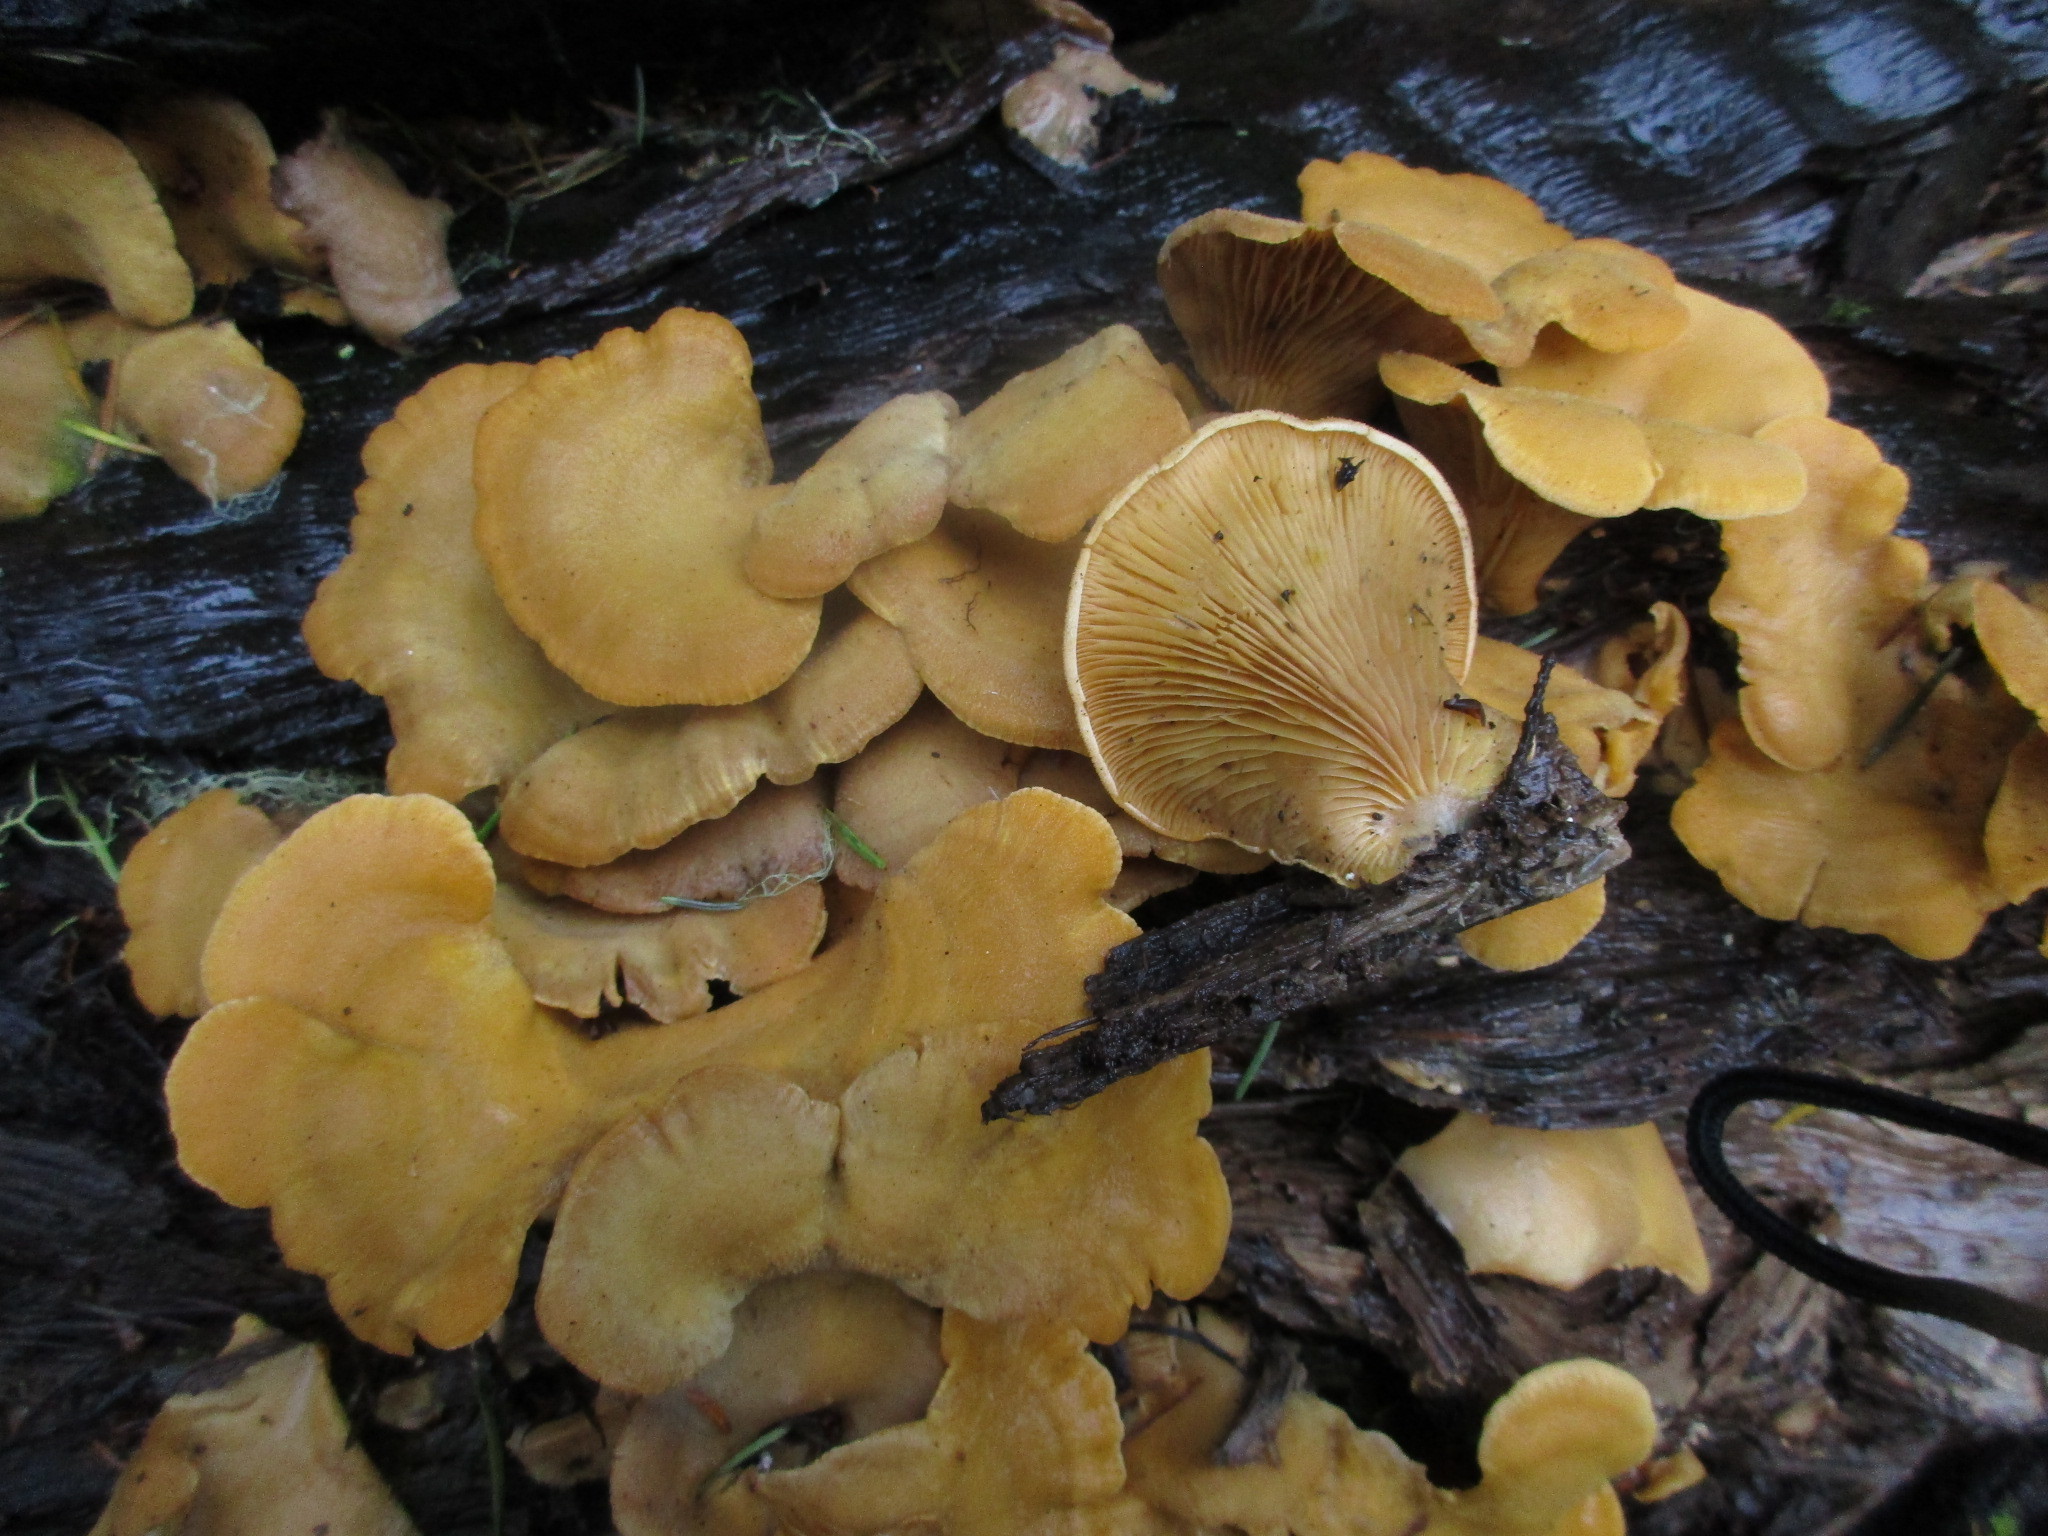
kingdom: Fungi
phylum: Basidiomycota
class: Agaricomycetes
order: Agaricales
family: Phyllotopsidaceae
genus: Phyllotopsis
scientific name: Phyllotopsis nidulans
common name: Orange mock oyster
